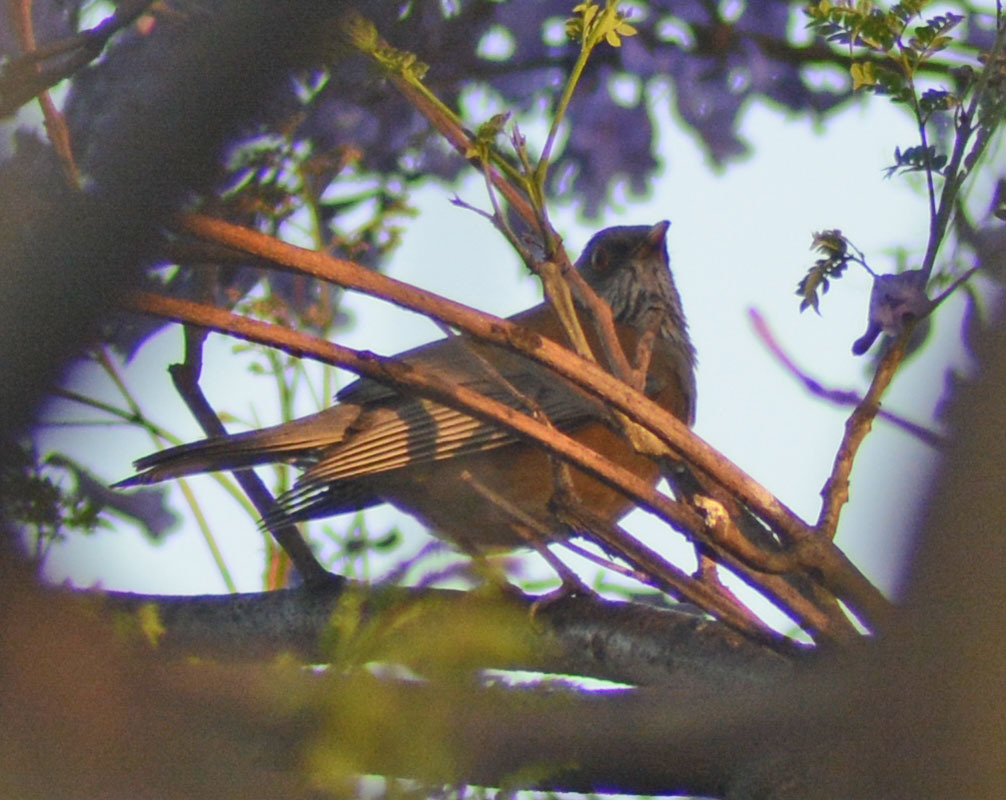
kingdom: Animalia
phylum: Chordata
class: Aves
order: Passeriformes
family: Turdidae
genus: Turdus
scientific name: Turdus rufopalliatus
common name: Rufous-backed robin
